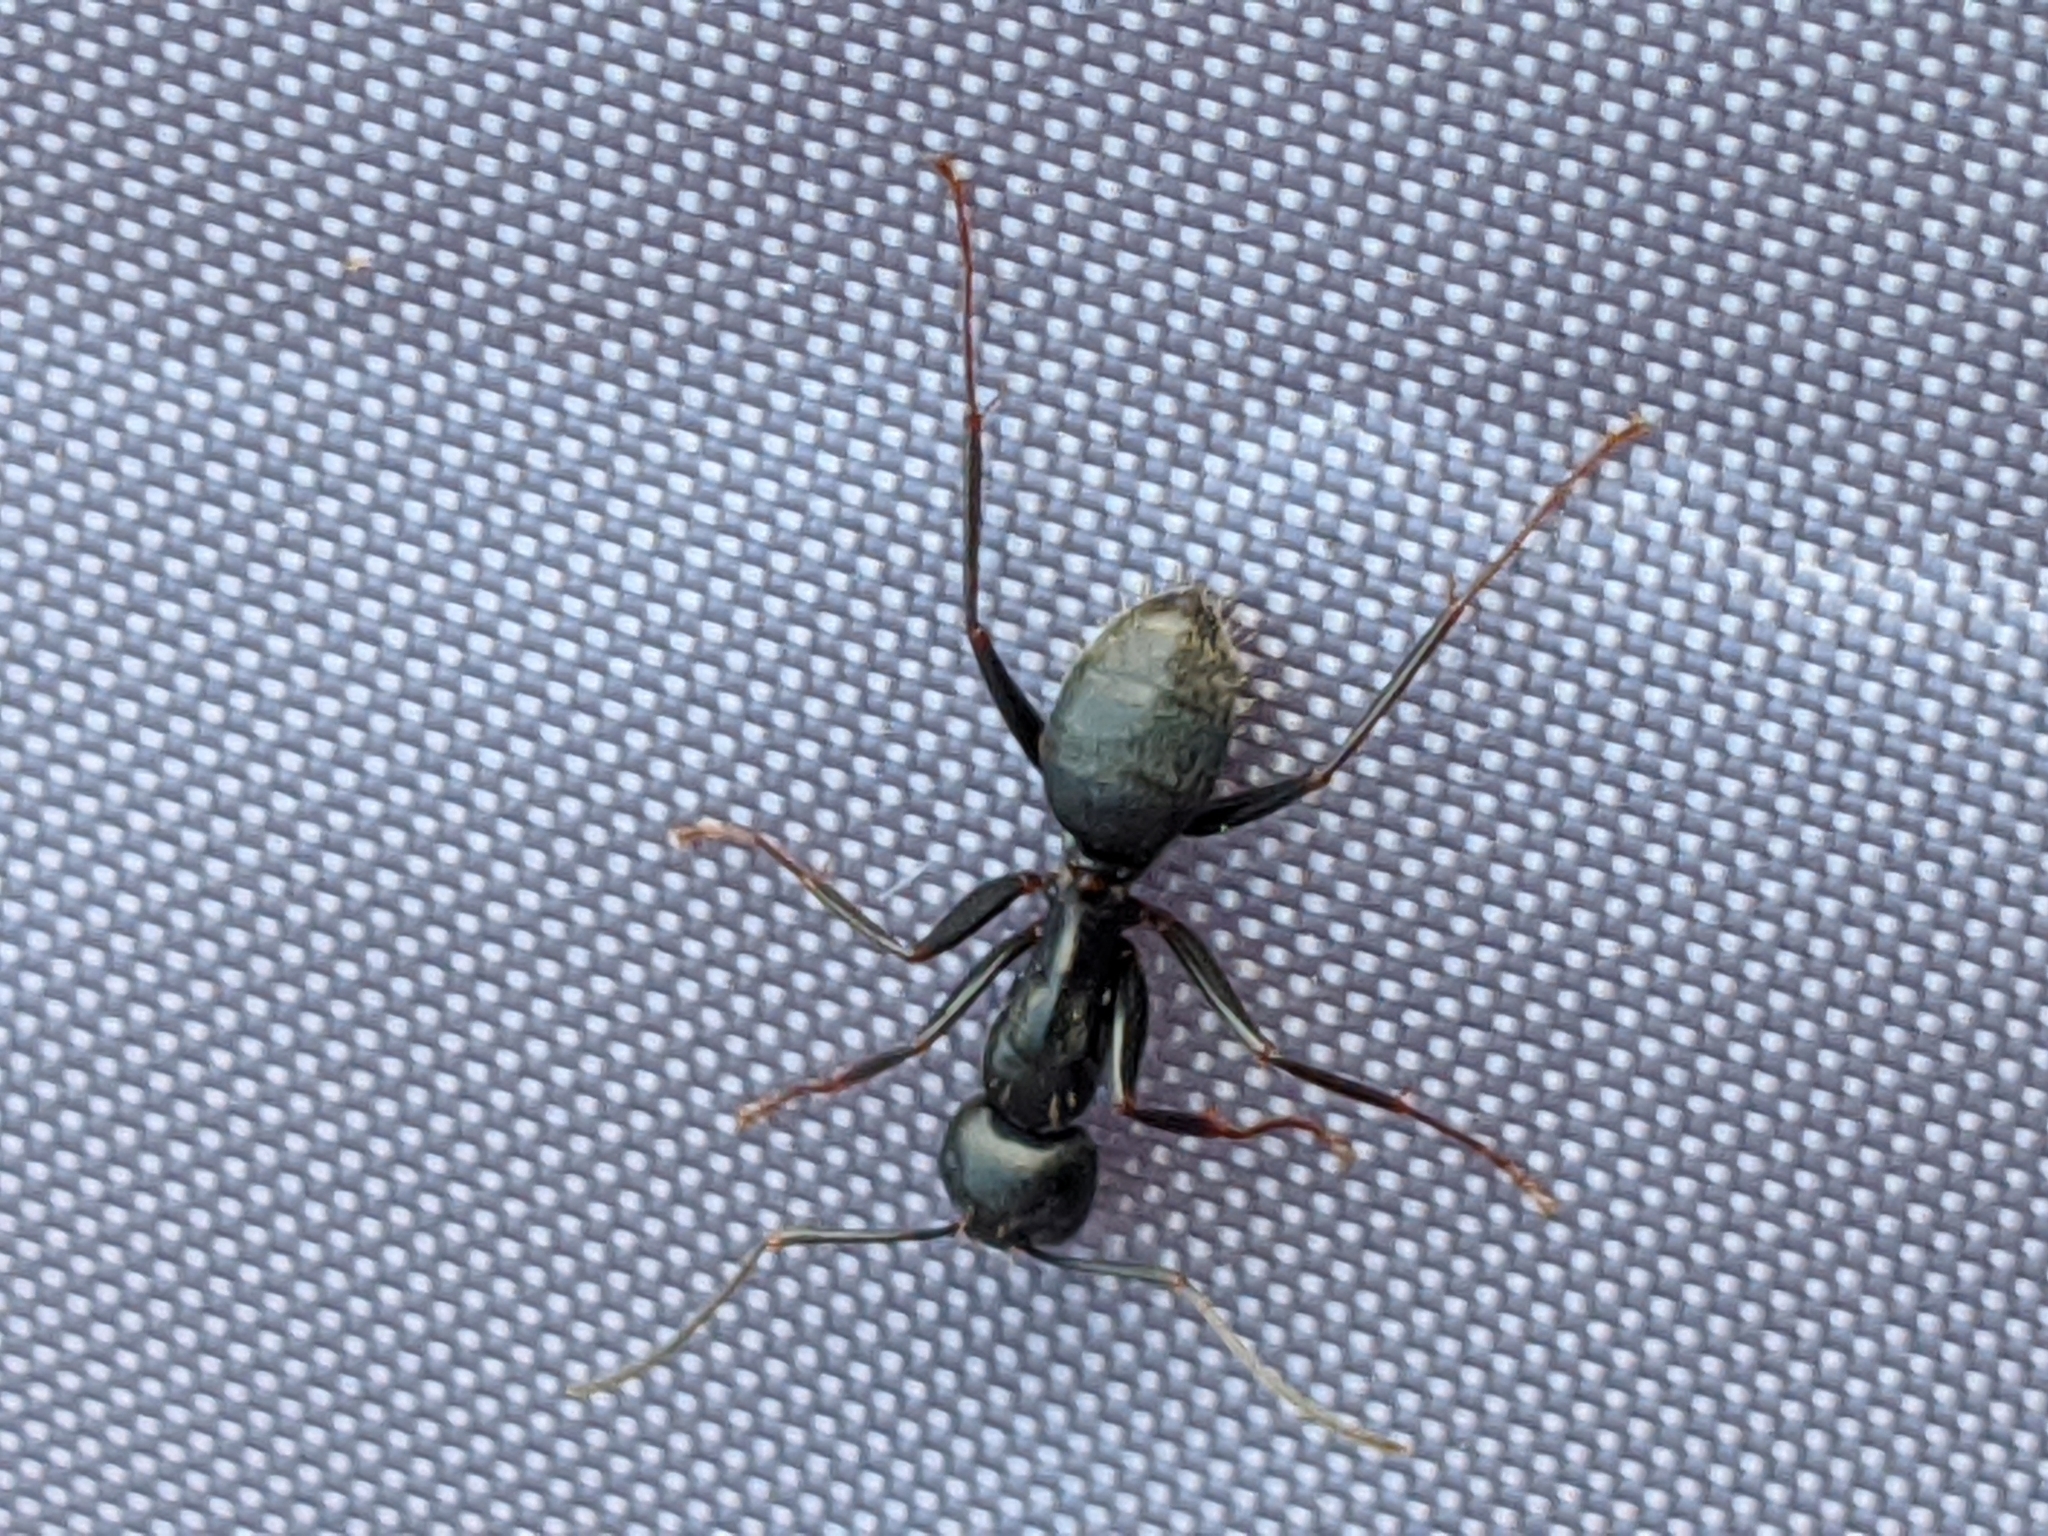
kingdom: Animalia
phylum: Arthropoda
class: Insecta
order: Hymenoptera
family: Formicidae
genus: Camponotus
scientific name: Camponotus pennsylvanicus
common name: Black carpenter ant
